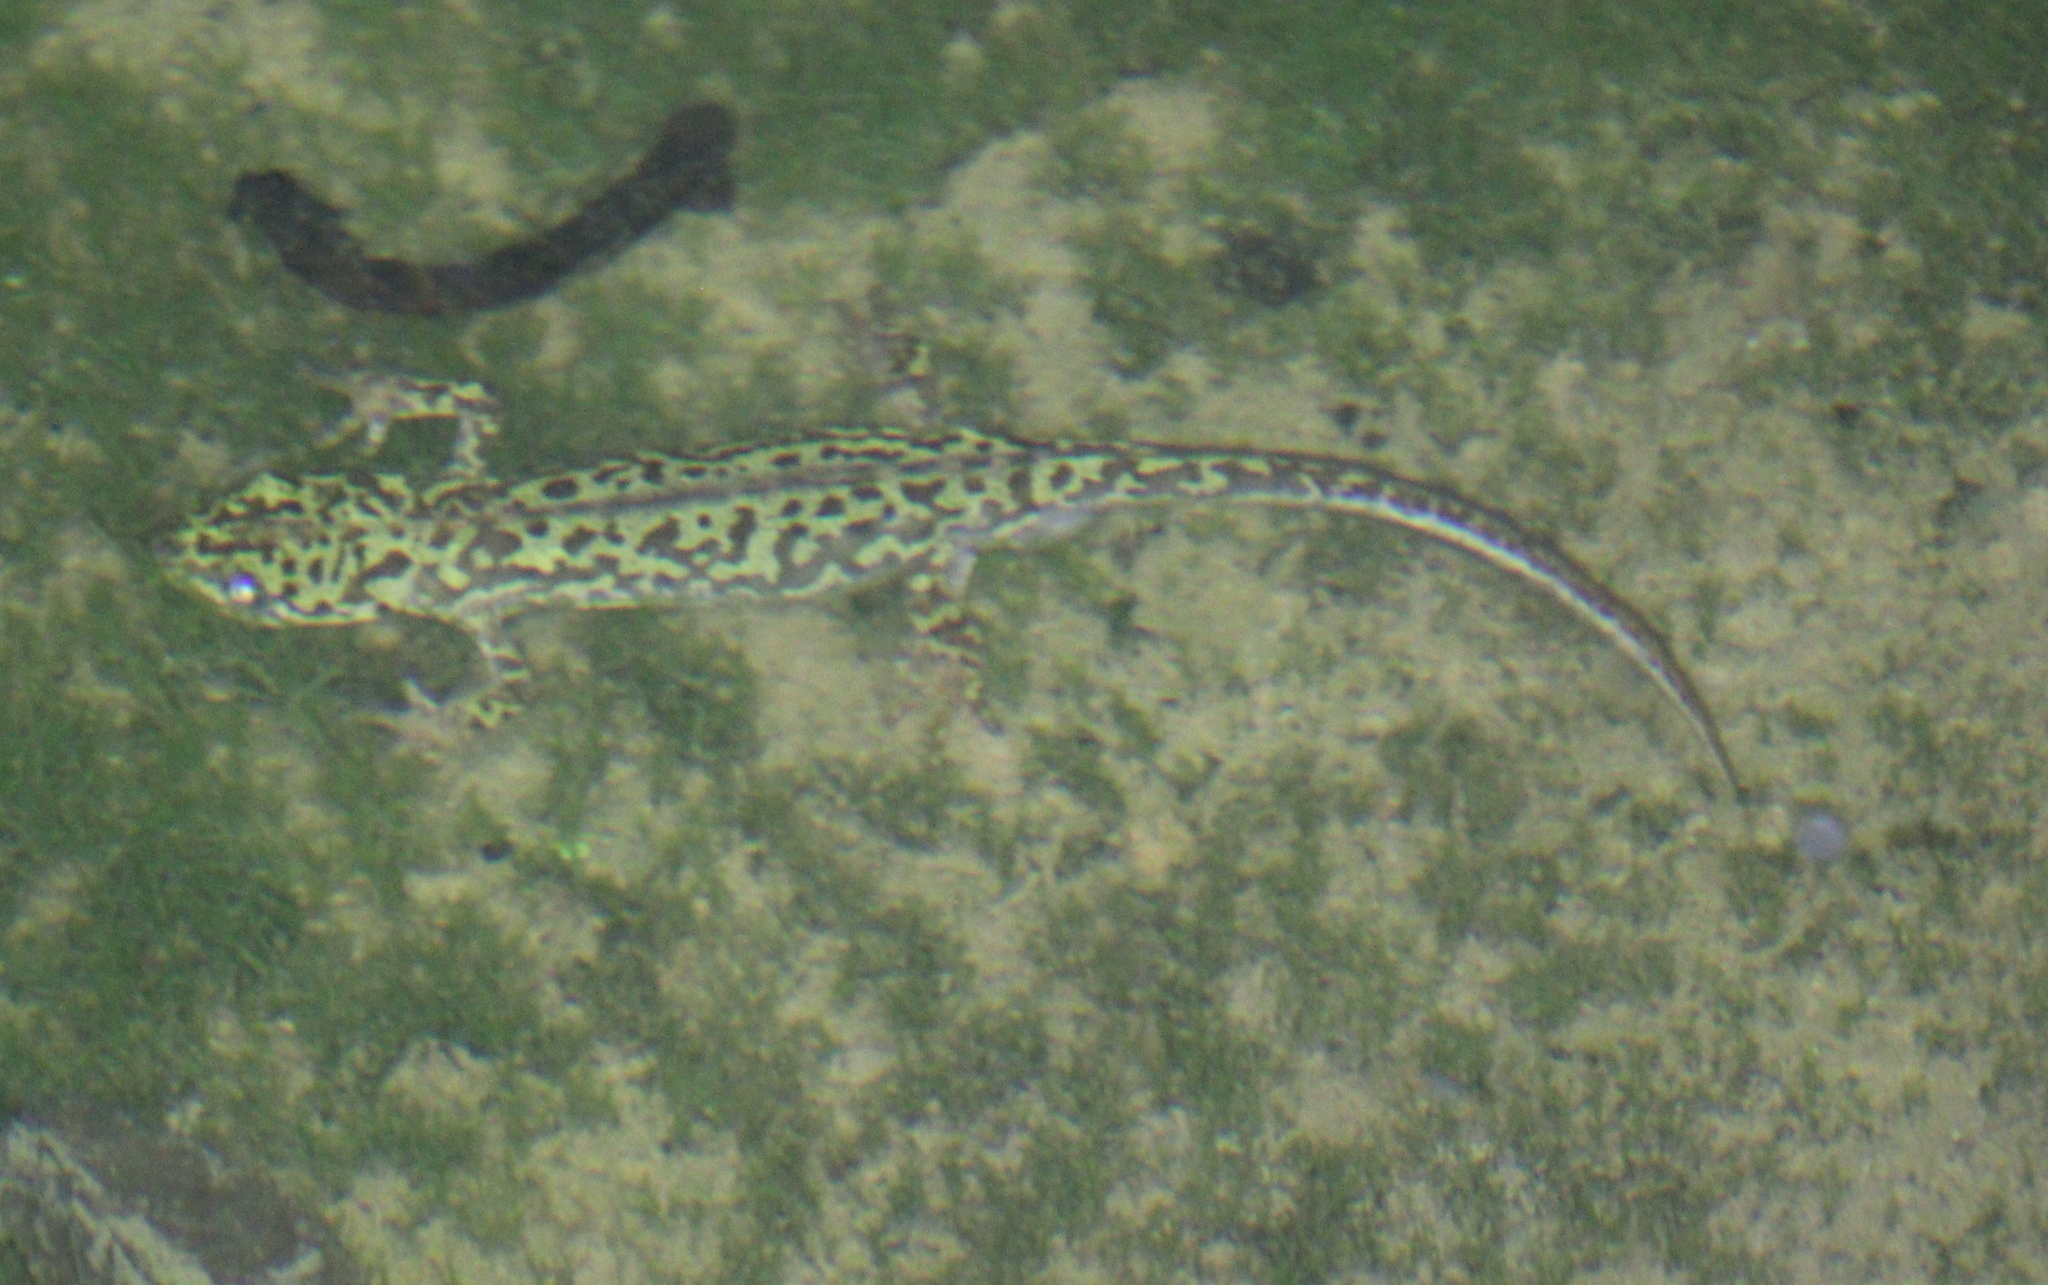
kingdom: Animalia
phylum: Chordata
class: Amphibia
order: Caudata
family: Salamandridae
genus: Triturus
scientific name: Triturus pygmaeus
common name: Southern marbled newt
